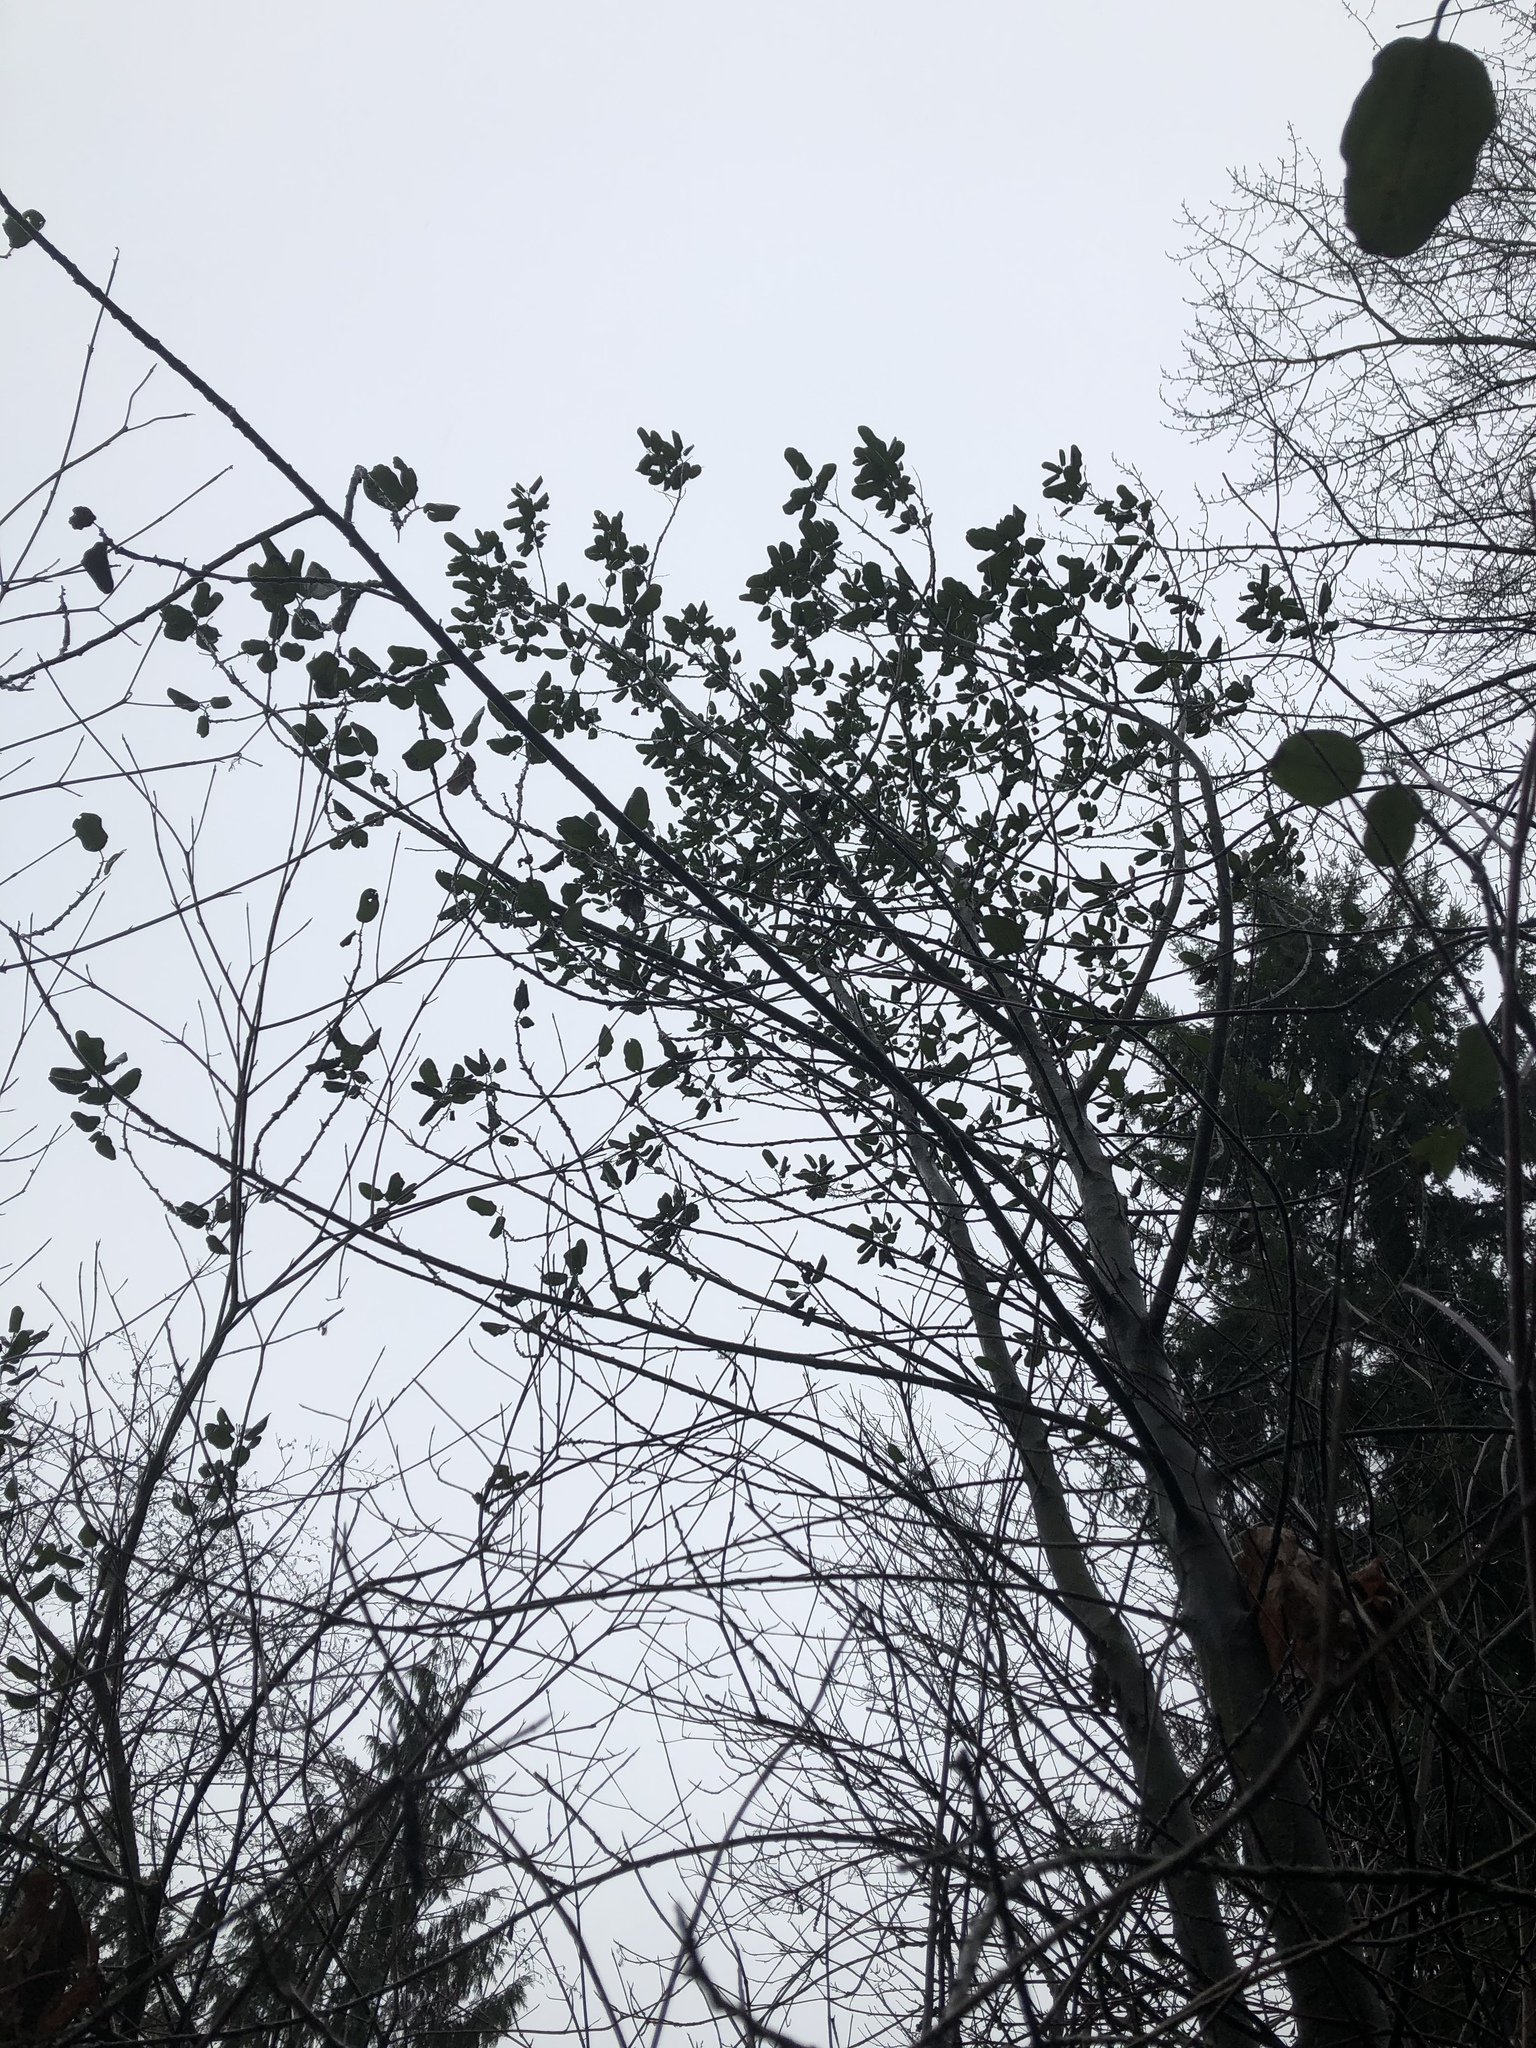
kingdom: Plantae
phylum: Tracheophyta
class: Magnoliopsida
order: Rosales
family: Rhamnaceae
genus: Ceanothus
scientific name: Ceanothus velutinus
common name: Snowbrush
